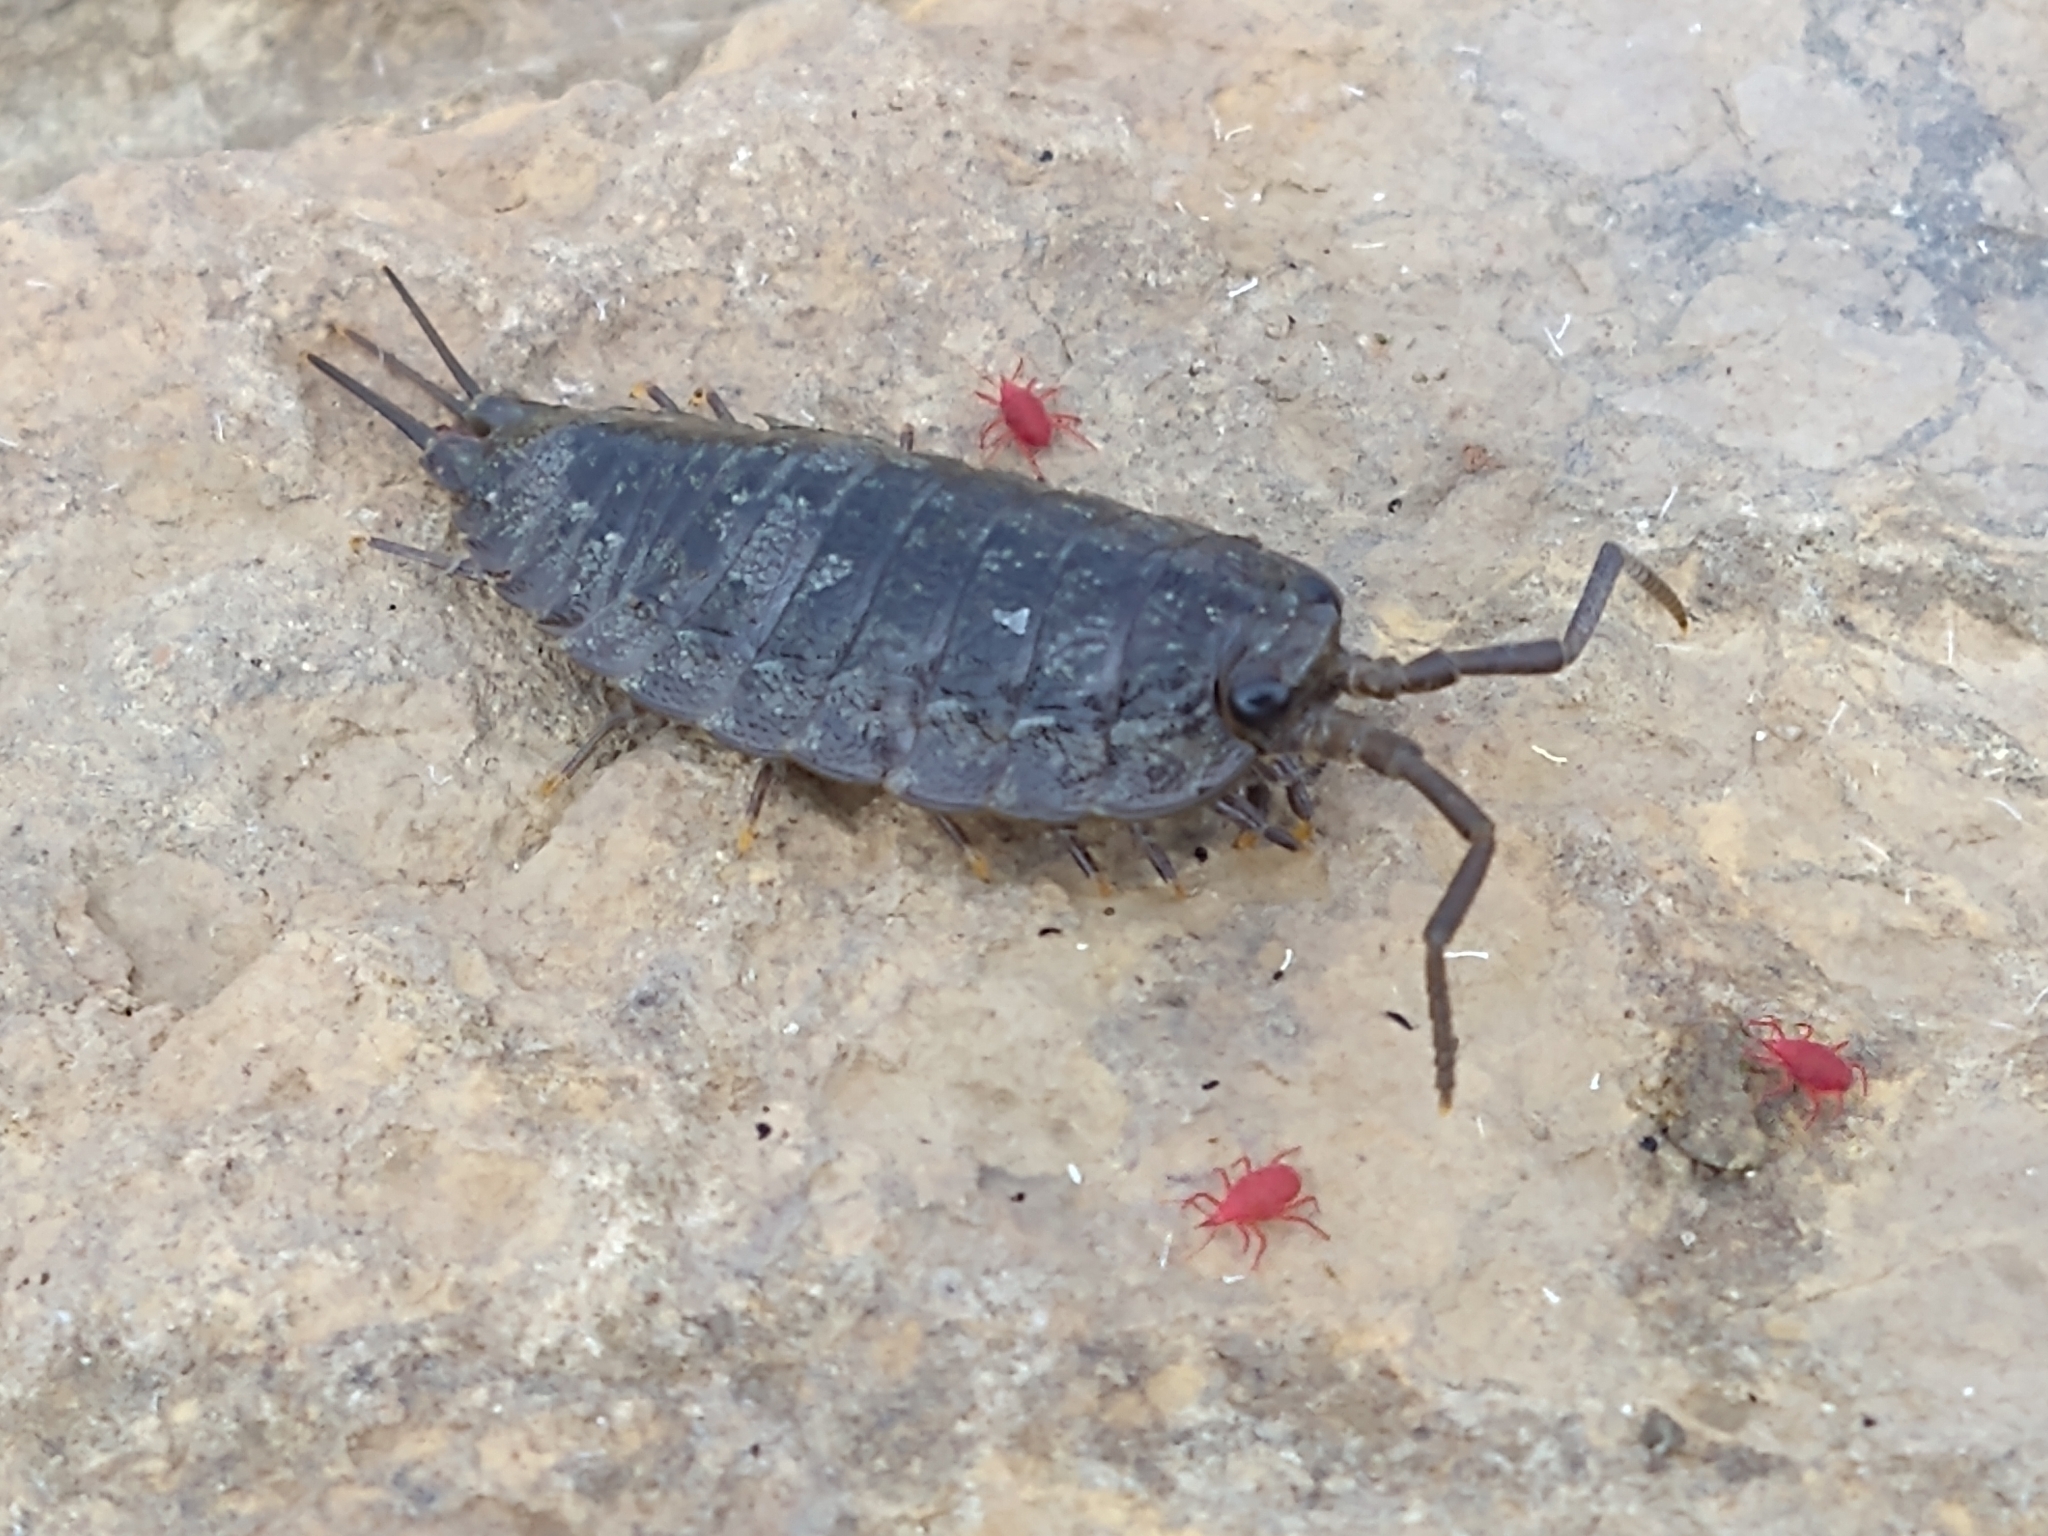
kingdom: Animalia
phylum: Arthropoda
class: Malacostraca
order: Isopoda
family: Ligiidae
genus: Ligia
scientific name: Ligia oceanica
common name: Sea slater
